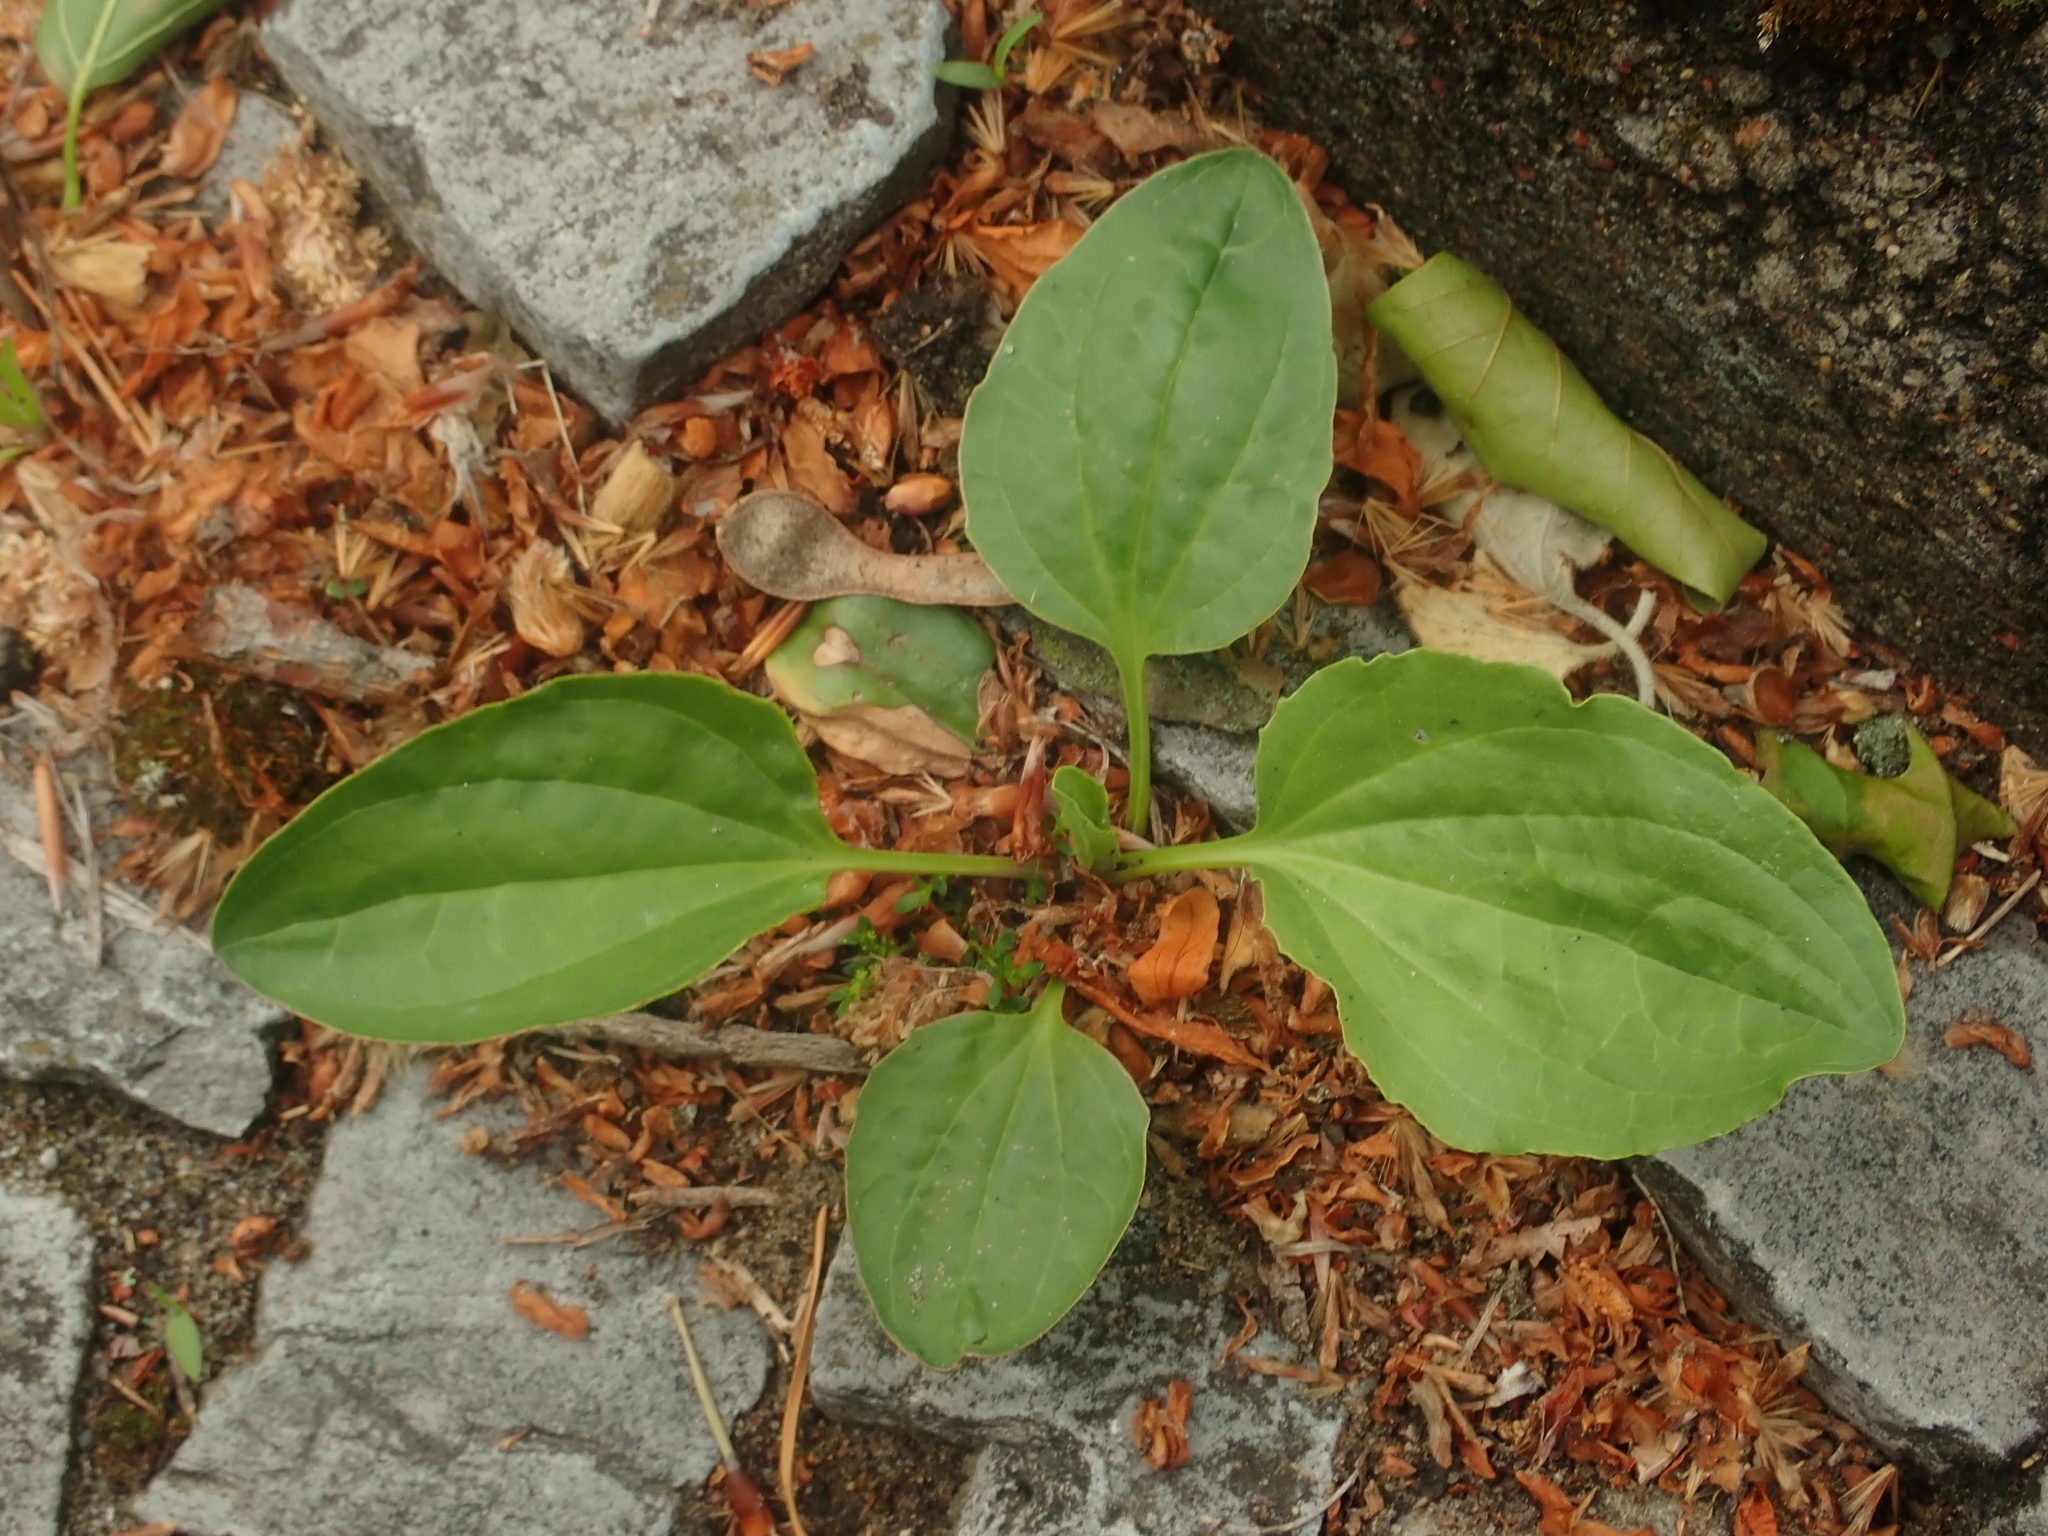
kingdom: Plantae
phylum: Tracheophyta
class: Magnoliopsida
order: Lamiales
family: Plantaginaceae
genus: Plantago
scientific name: Plantago major
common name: Common plantain
